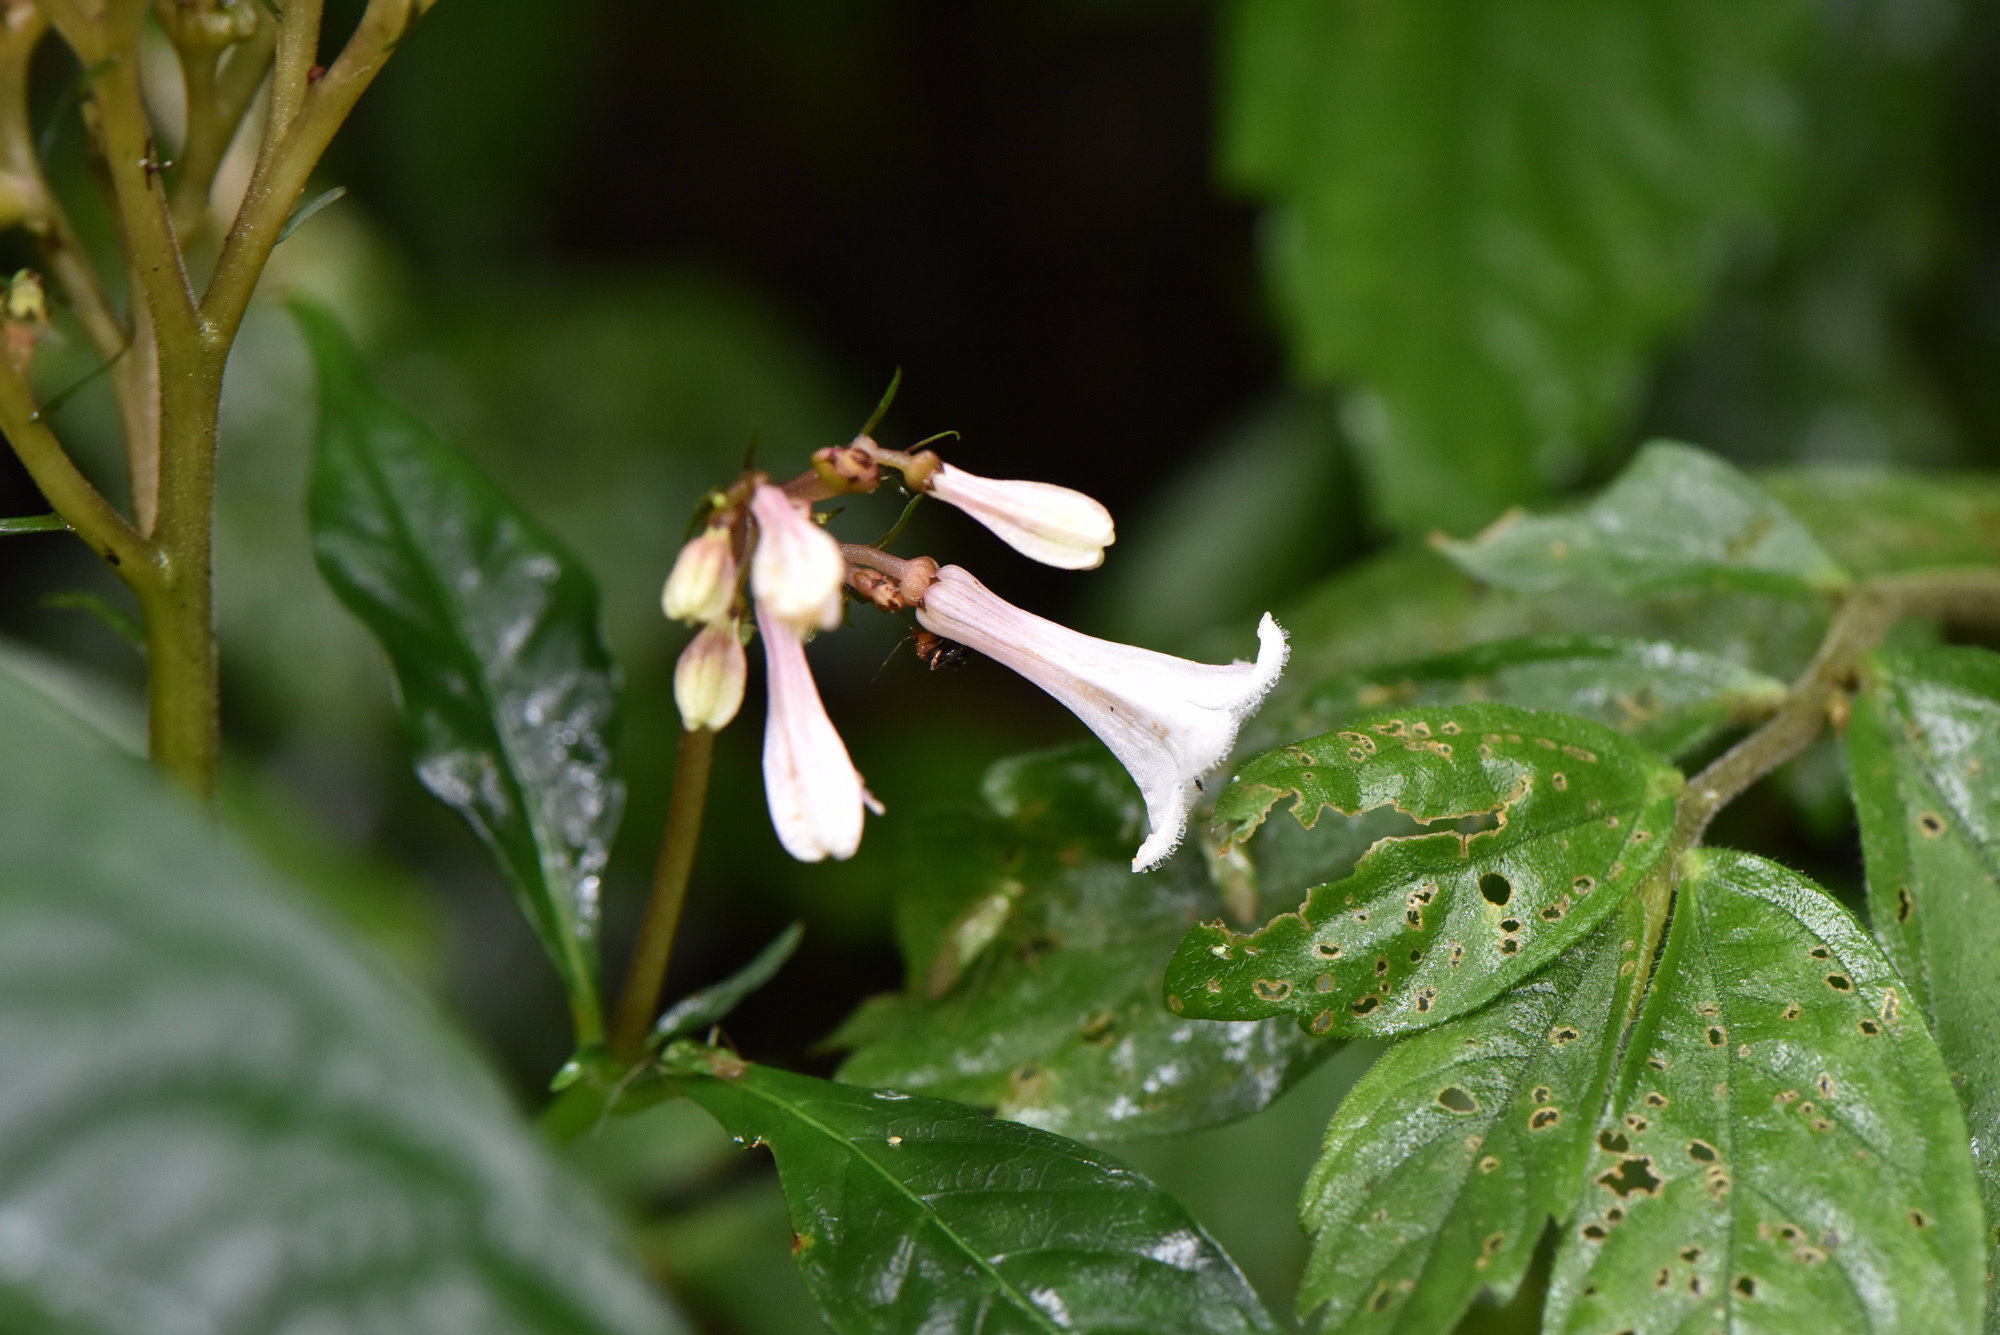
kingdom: Plantae
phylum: Tracheophyta
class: Magnoliopsida
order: Gentianales
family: Rubiaceae
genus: Ophiorrhiza
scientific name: Ophiorrhiza japonica
